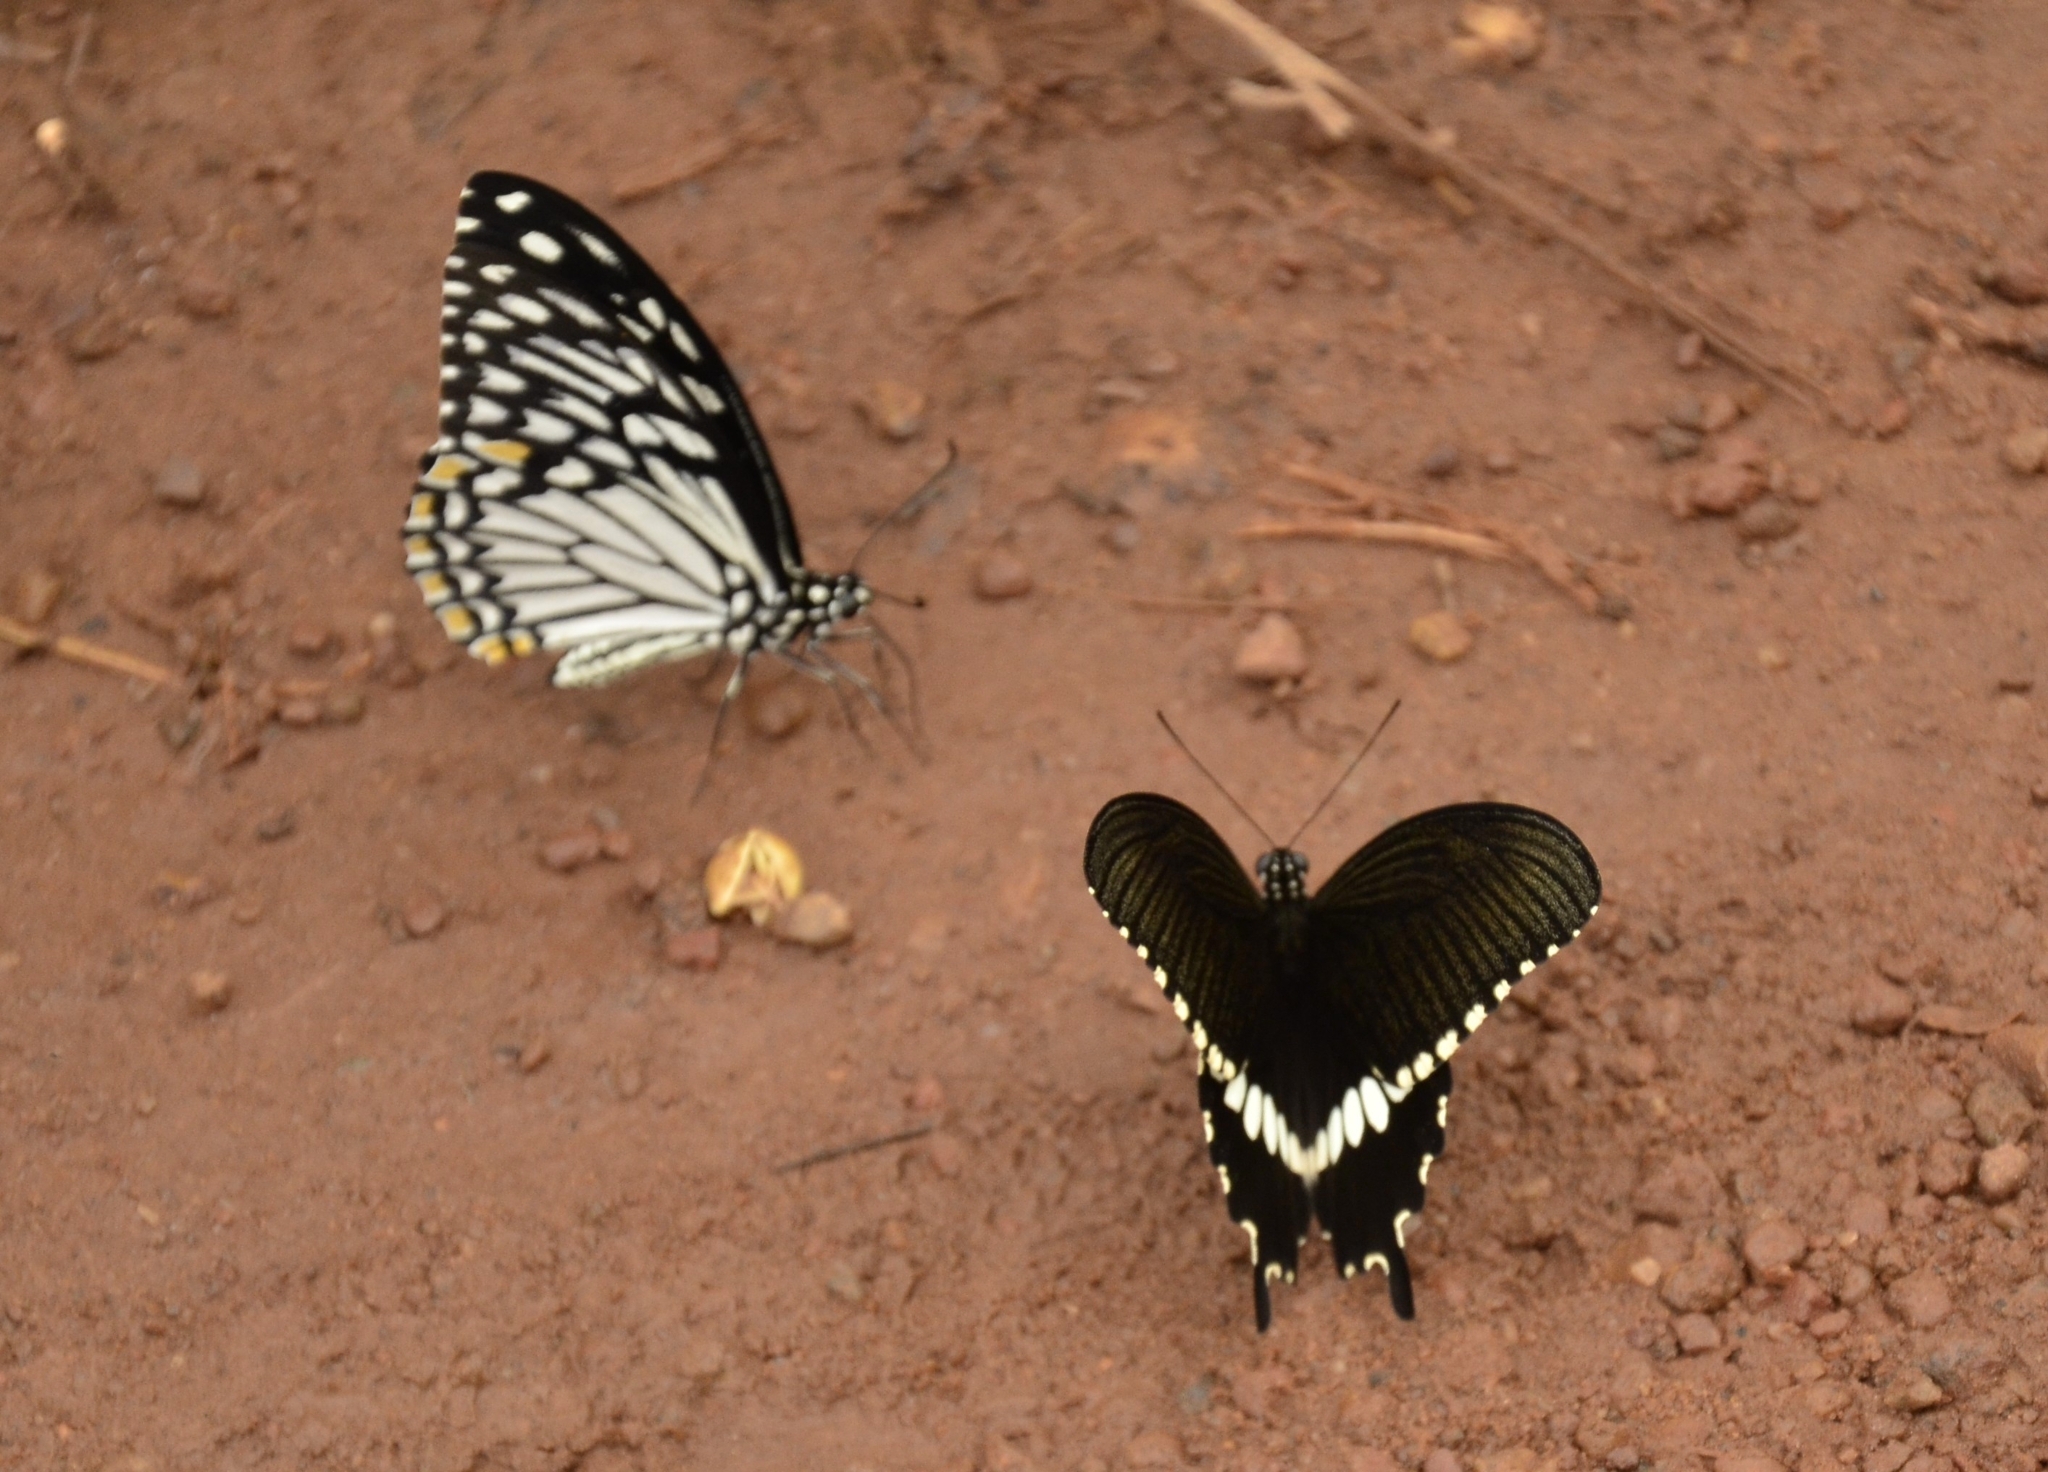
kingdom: Animalia
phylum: Arthropoda
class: Insecta
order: Lepidoptera
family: Papilionidae
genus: Papilio
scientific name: Papilio polytes
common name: Common mormon
